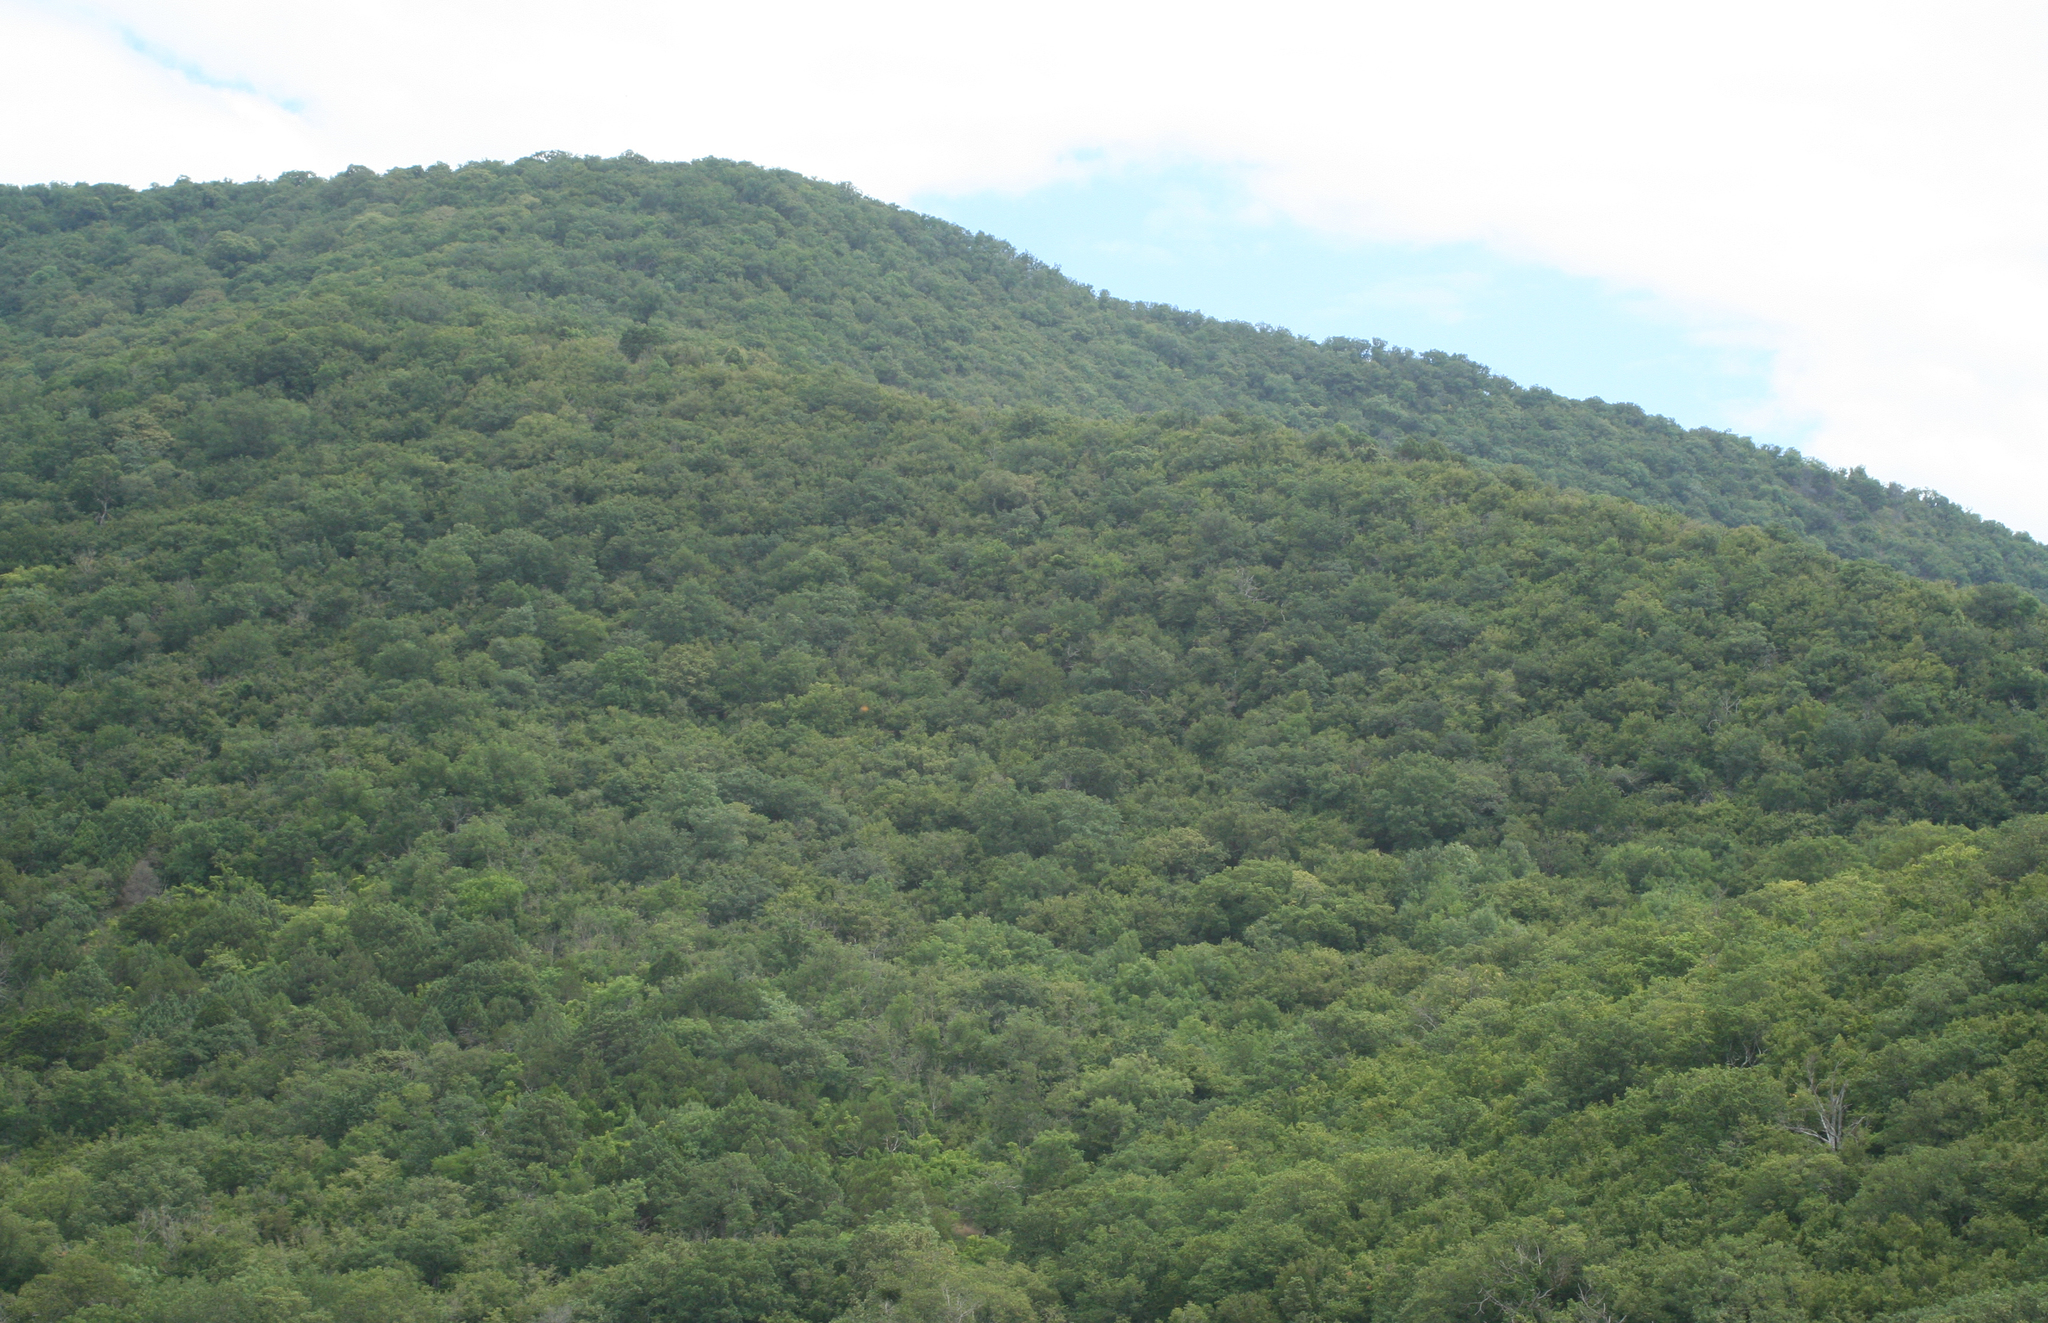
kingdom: Plantae
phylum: Tracheophyta
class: Magnoliopsida
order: Fagales
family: Betulaceae
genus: Carpinus
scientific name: Carpinus orientalis
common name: Eastern hornbeam
